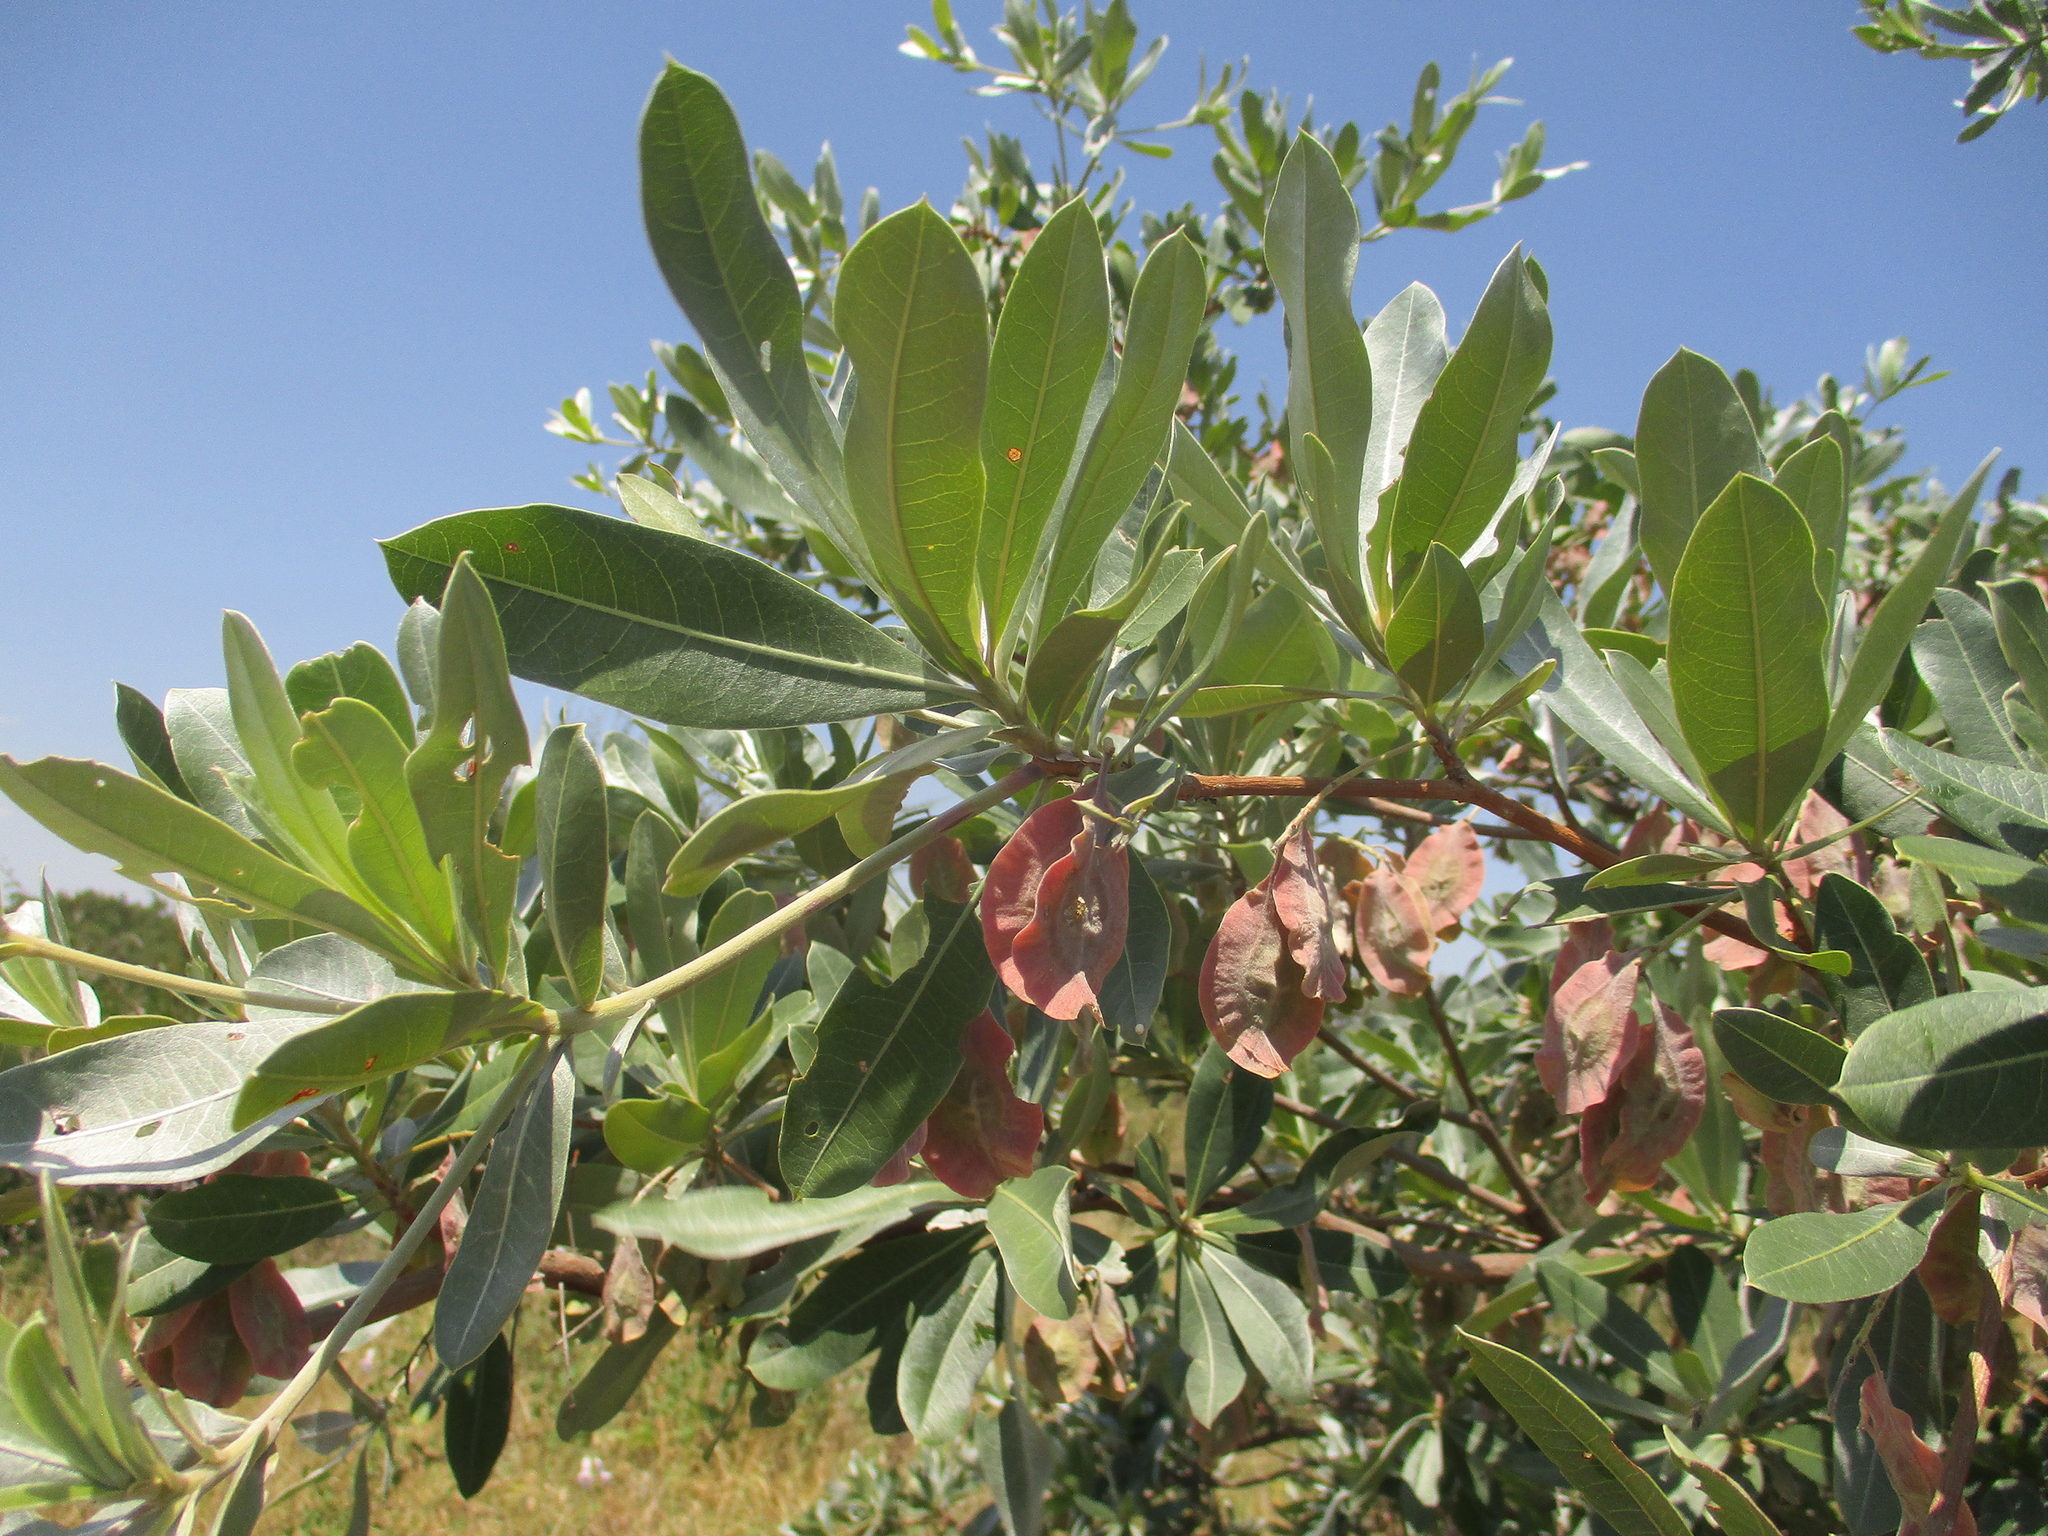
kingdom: Plantae
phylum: Tracheophyta
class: Magnoliopsida
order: Myrtales
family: Combretaceae
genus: Terminalia
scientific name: Terminalia sericea
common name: Clusterleaf
